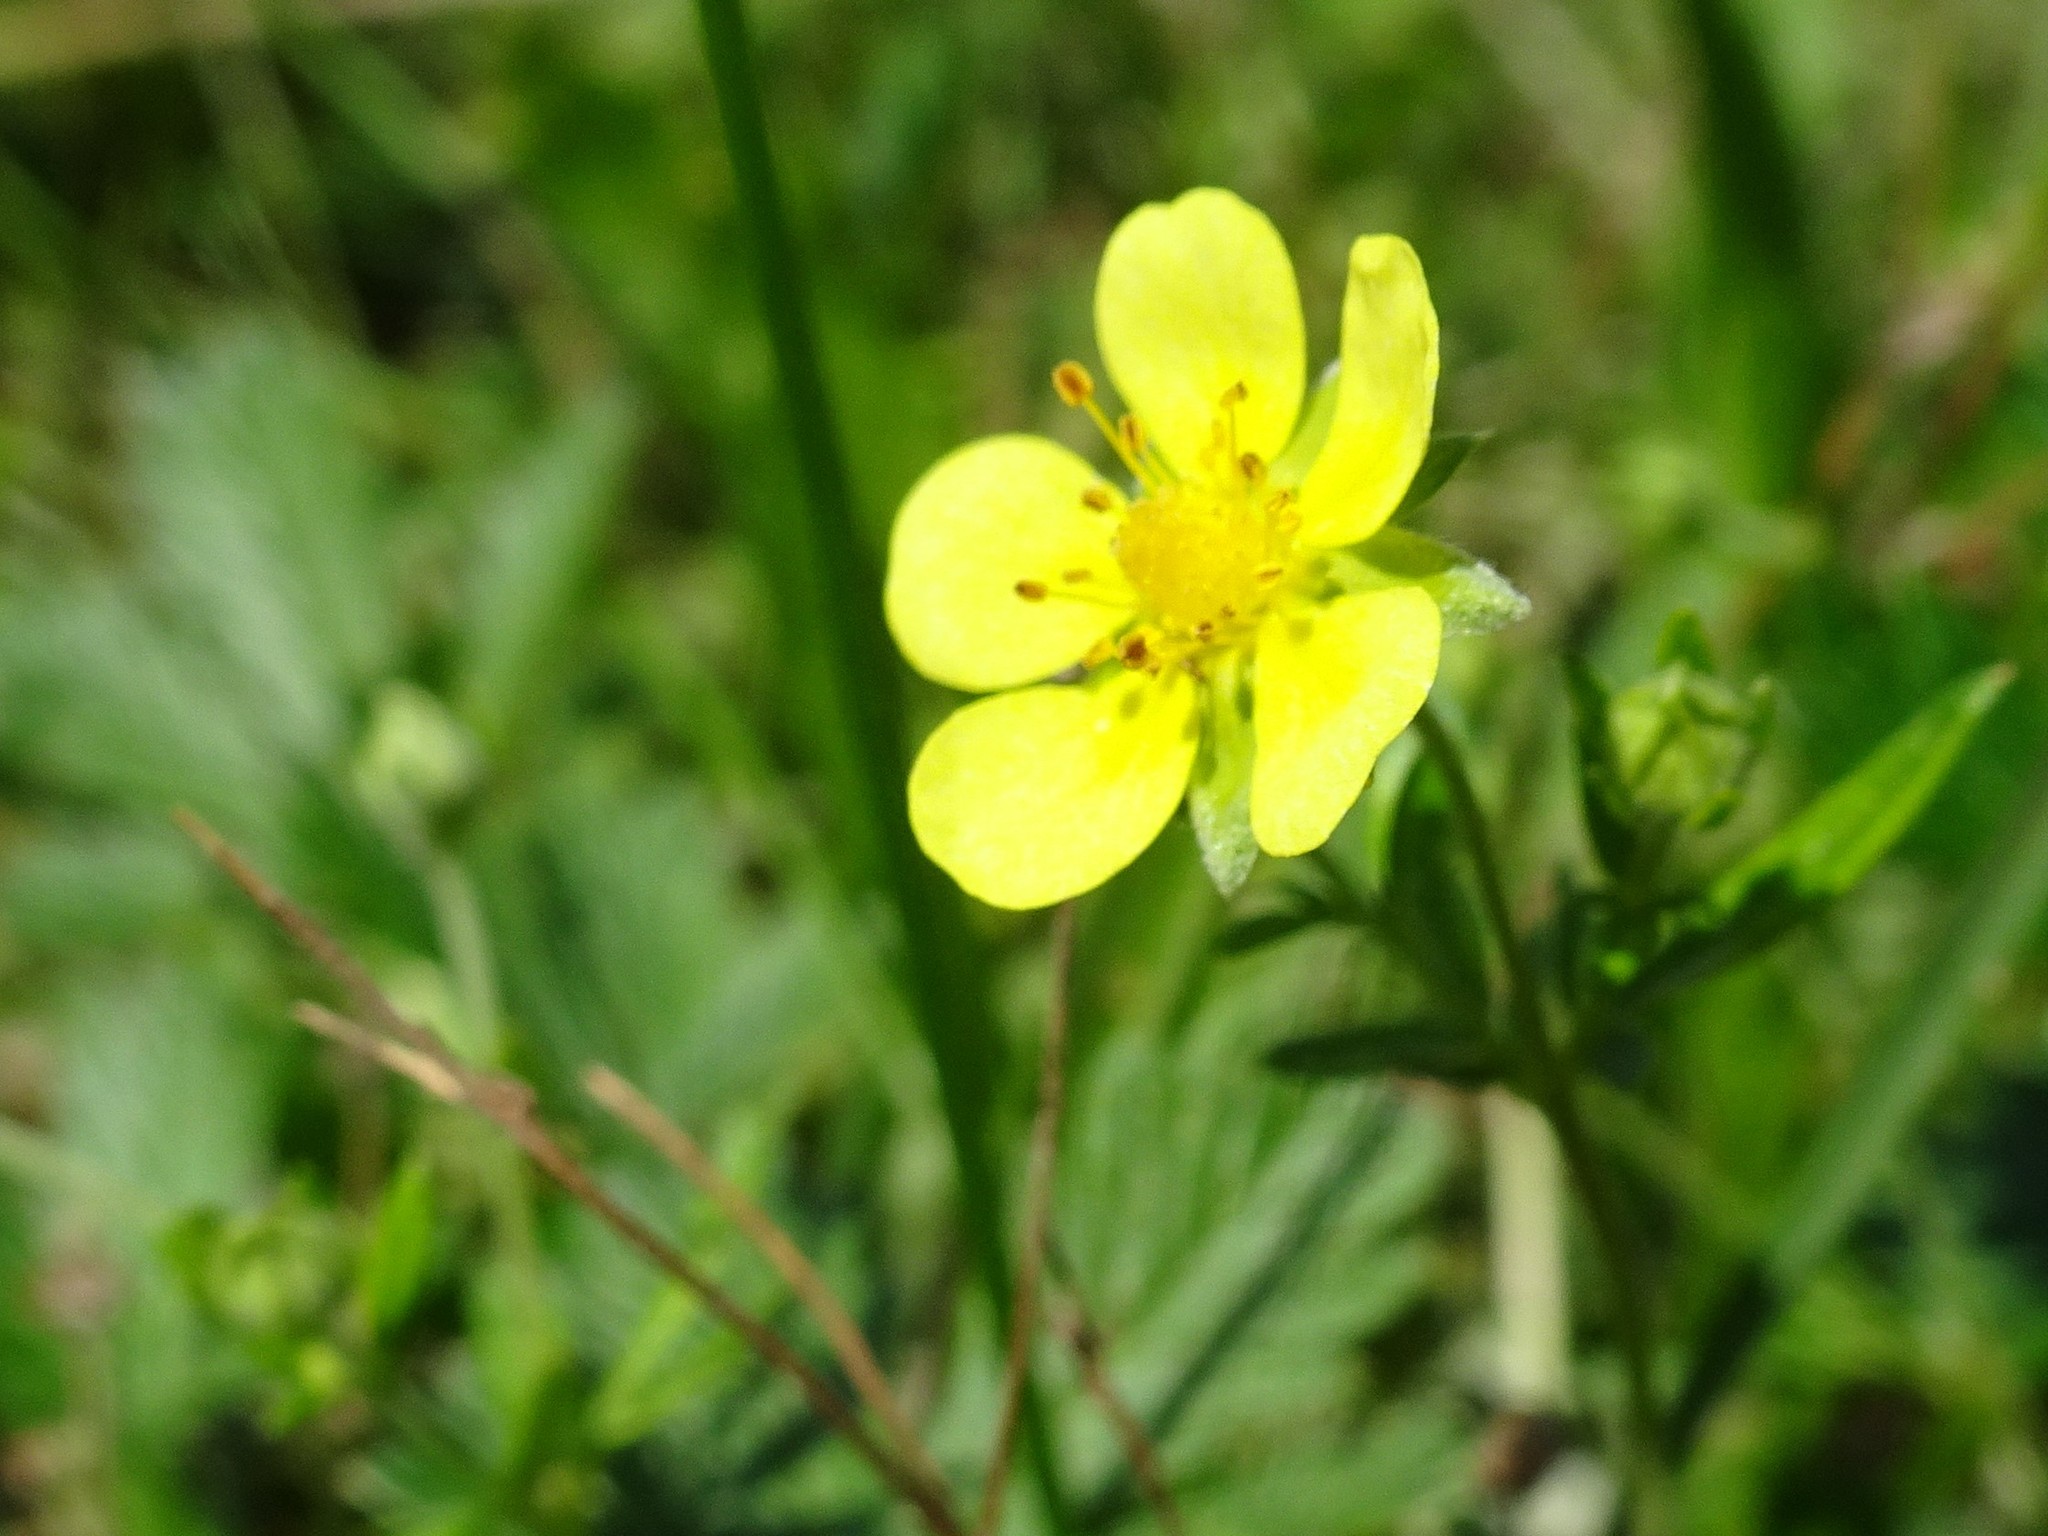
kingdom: Plantae
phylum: Tracheophyta
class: Magnoliopsida
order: Rosales
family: Rosaceae
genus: Potentilla
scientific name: Potentilla argentea
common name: Hoary cinquefoil
